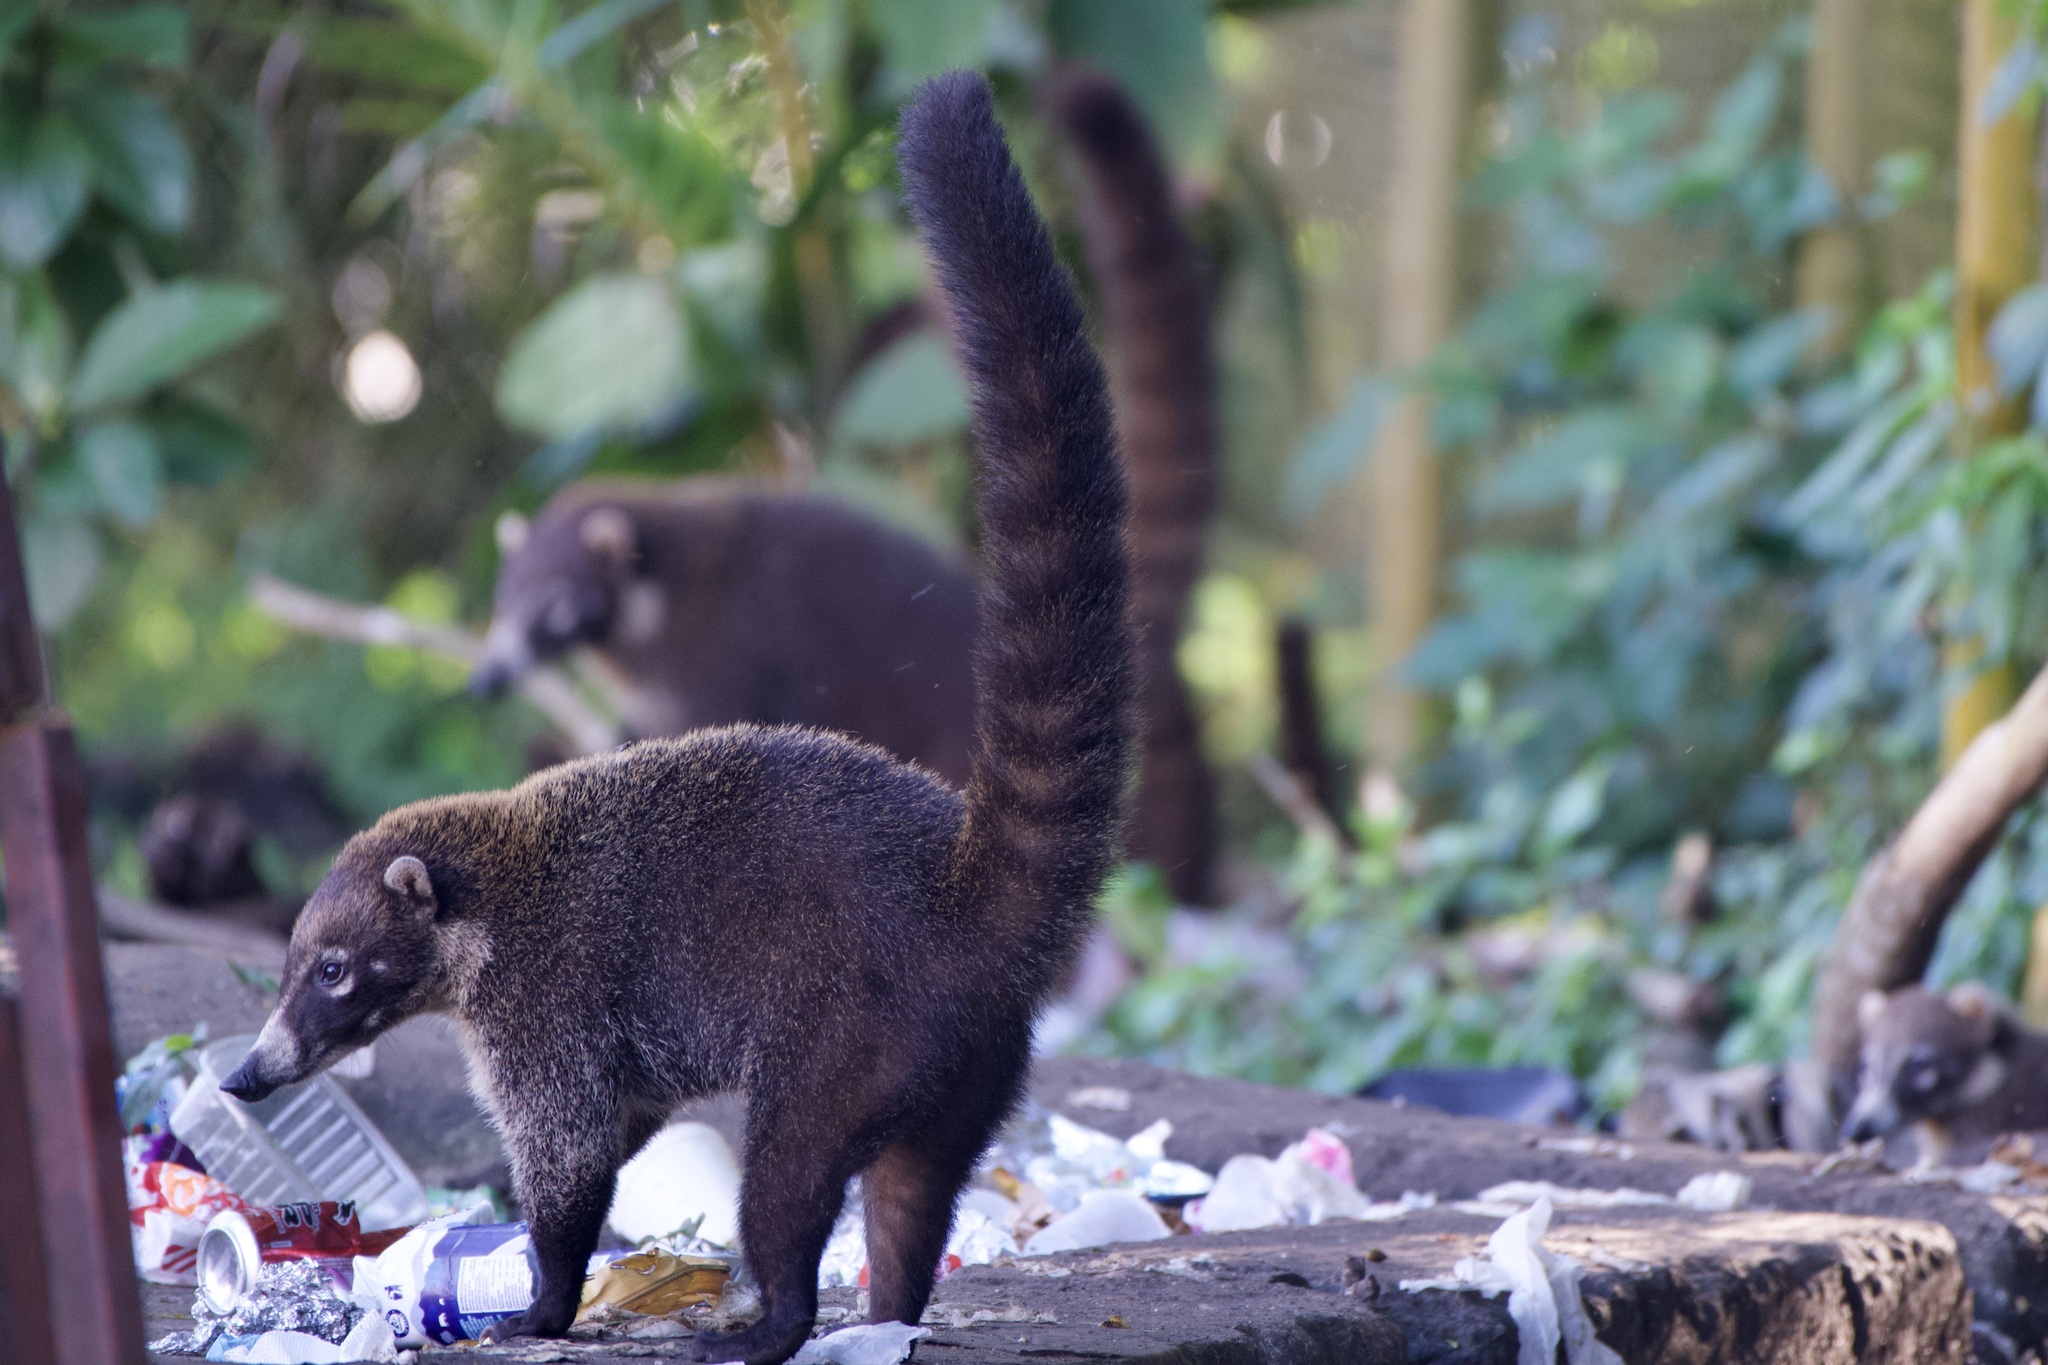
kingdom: Animalia
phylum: Chordata
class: Mammalia
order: Carnivora
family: Procyonidae
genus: Nasua
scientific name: Nasua narica
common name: White-nosed coati
